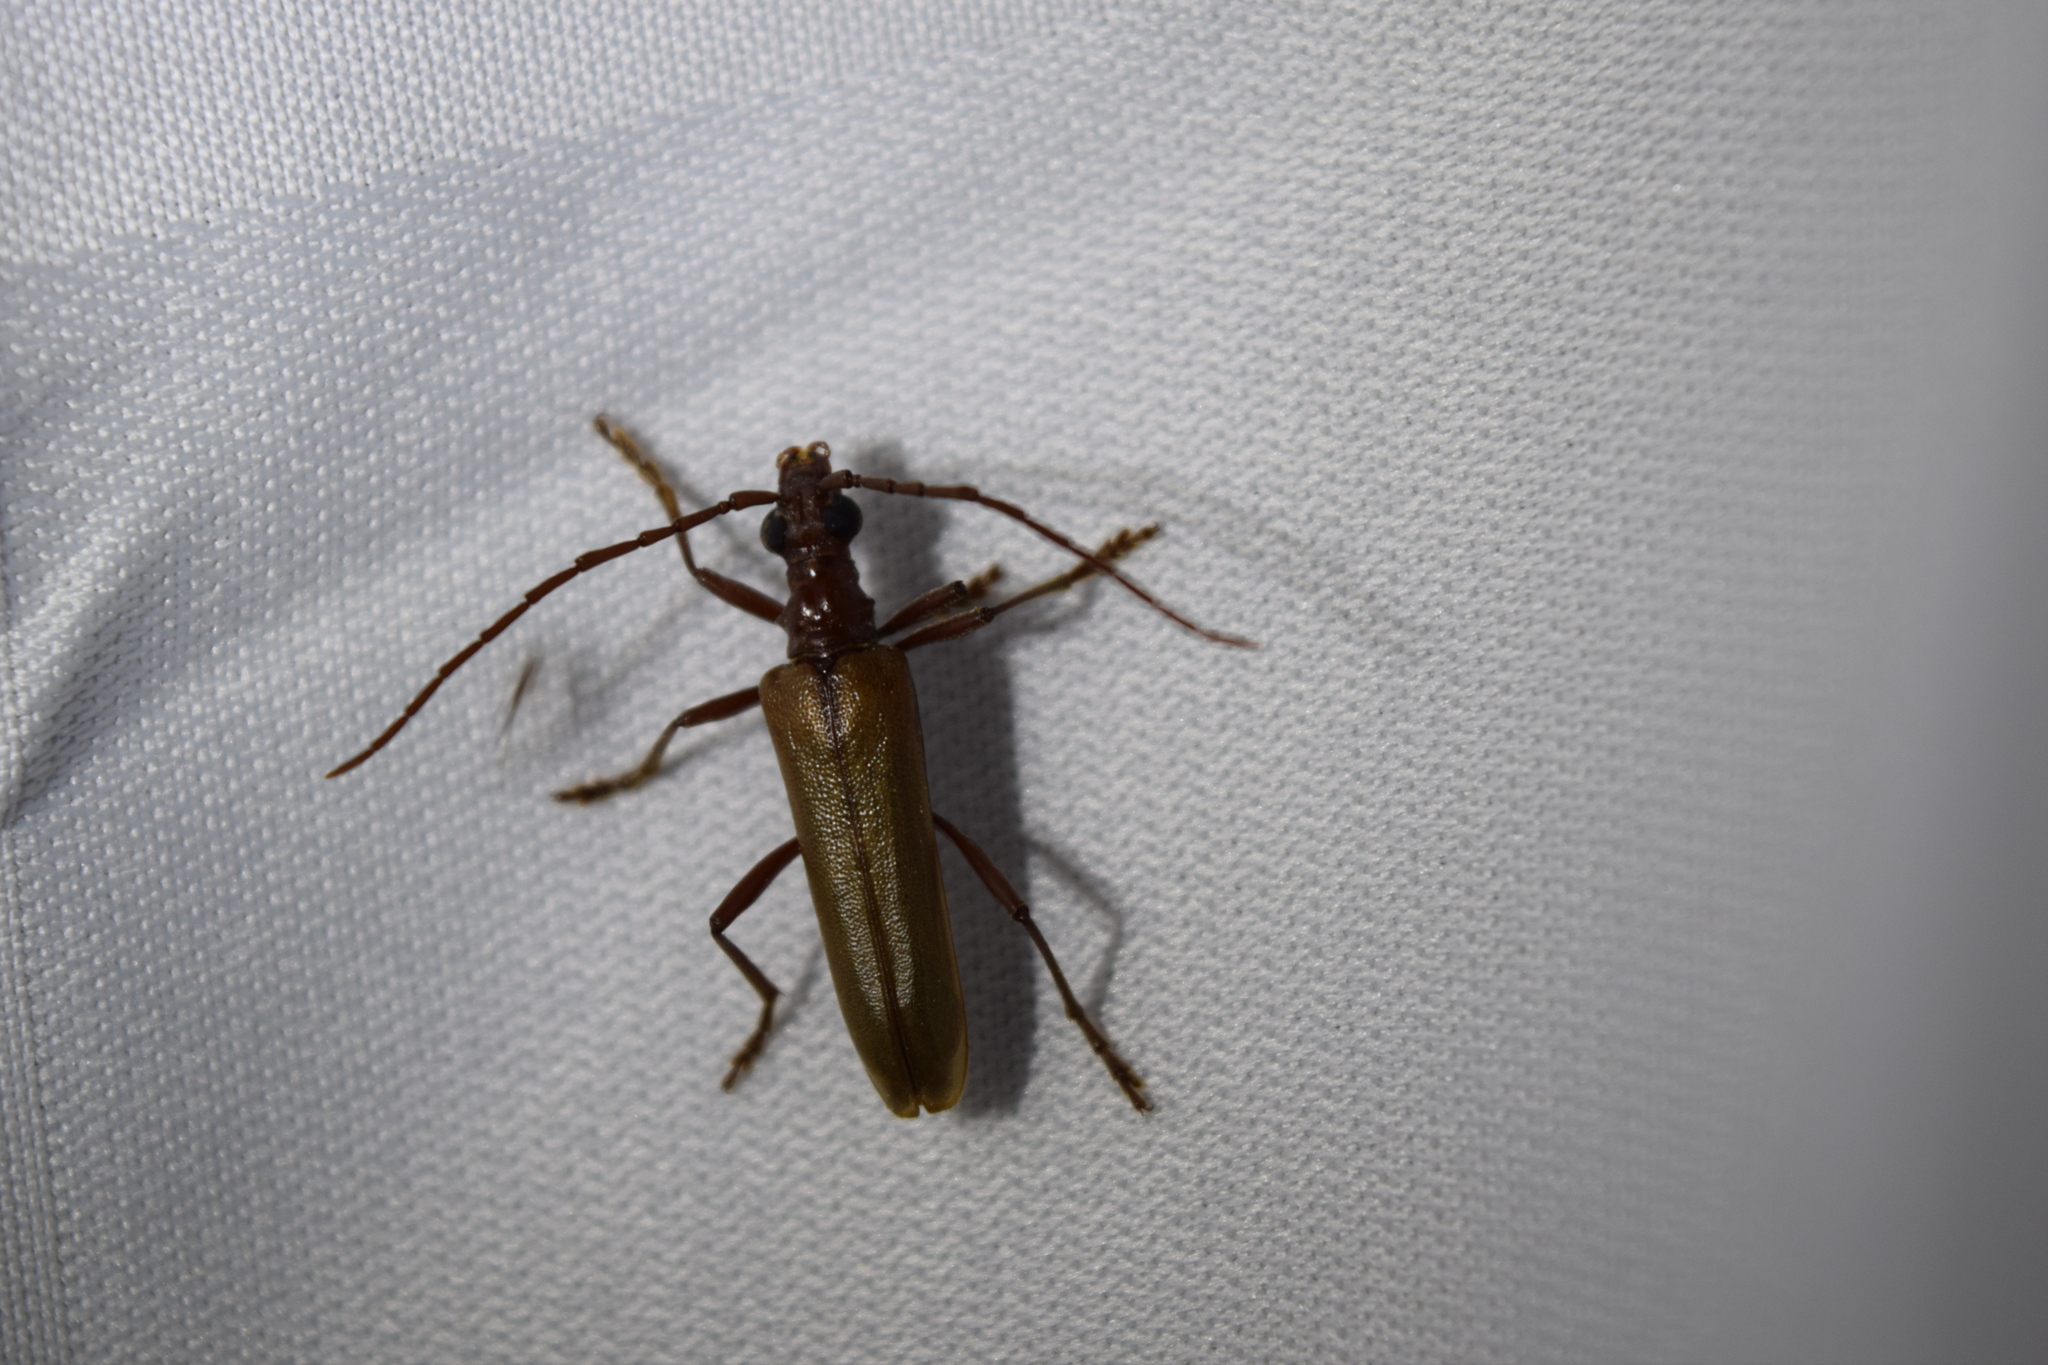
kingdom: Animalia
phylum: Arthropoda
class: Insecta
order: Coleoptera
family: Cerambycidae
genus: Centrodera
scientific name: Centrodera decolorata
